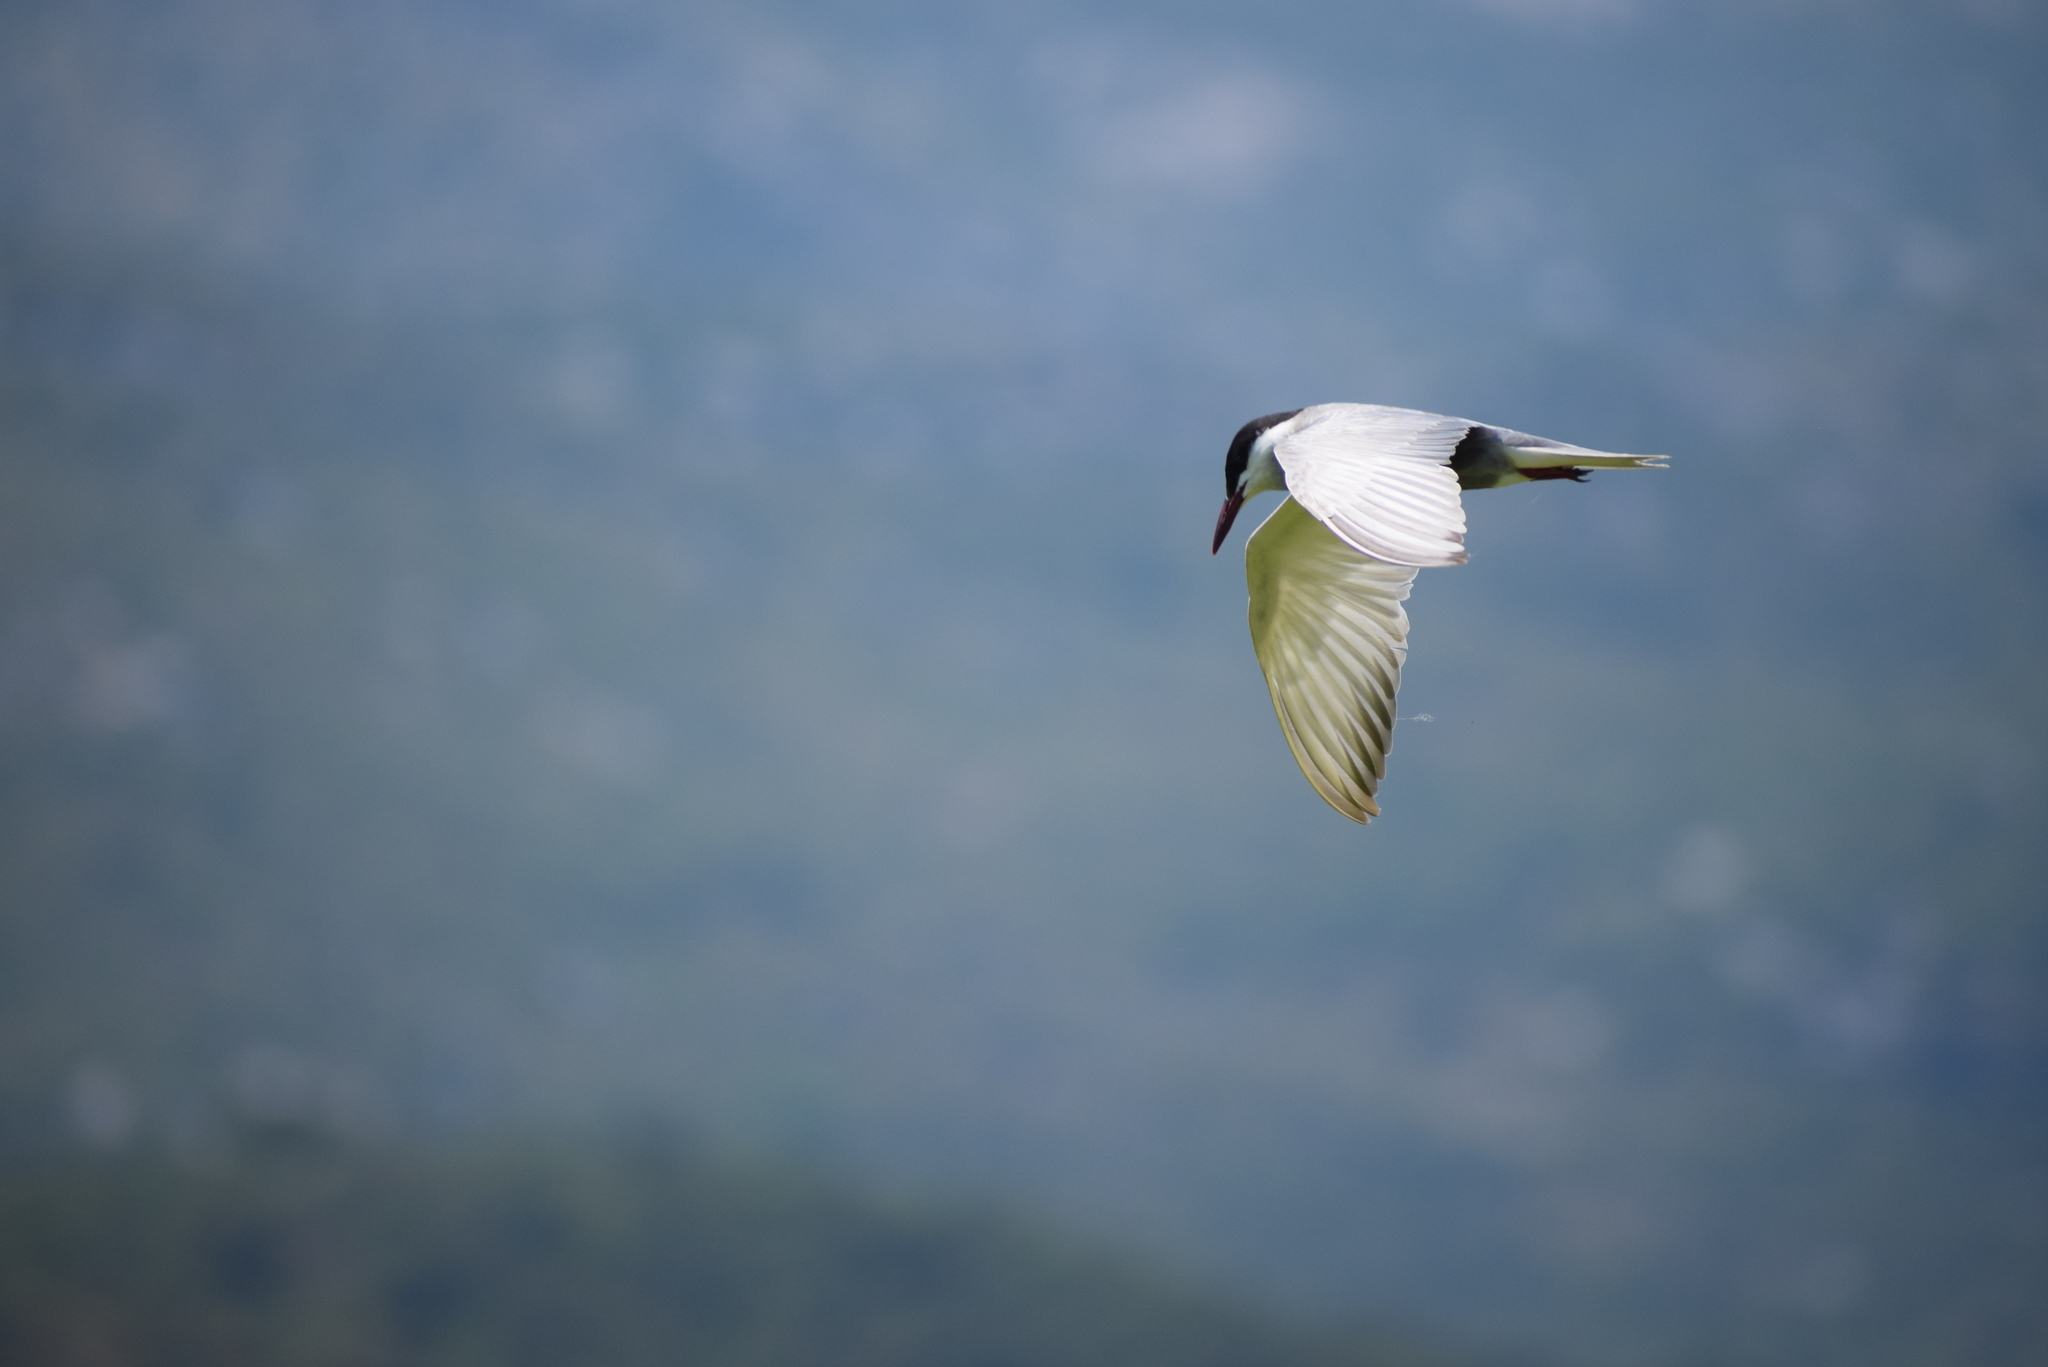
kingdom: Animalia
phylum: Chordata
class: Aves
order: Charadriiformes
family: Laridae
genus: Chlidonias
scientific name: Chlidonias hybrida
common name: Whiskered tern
